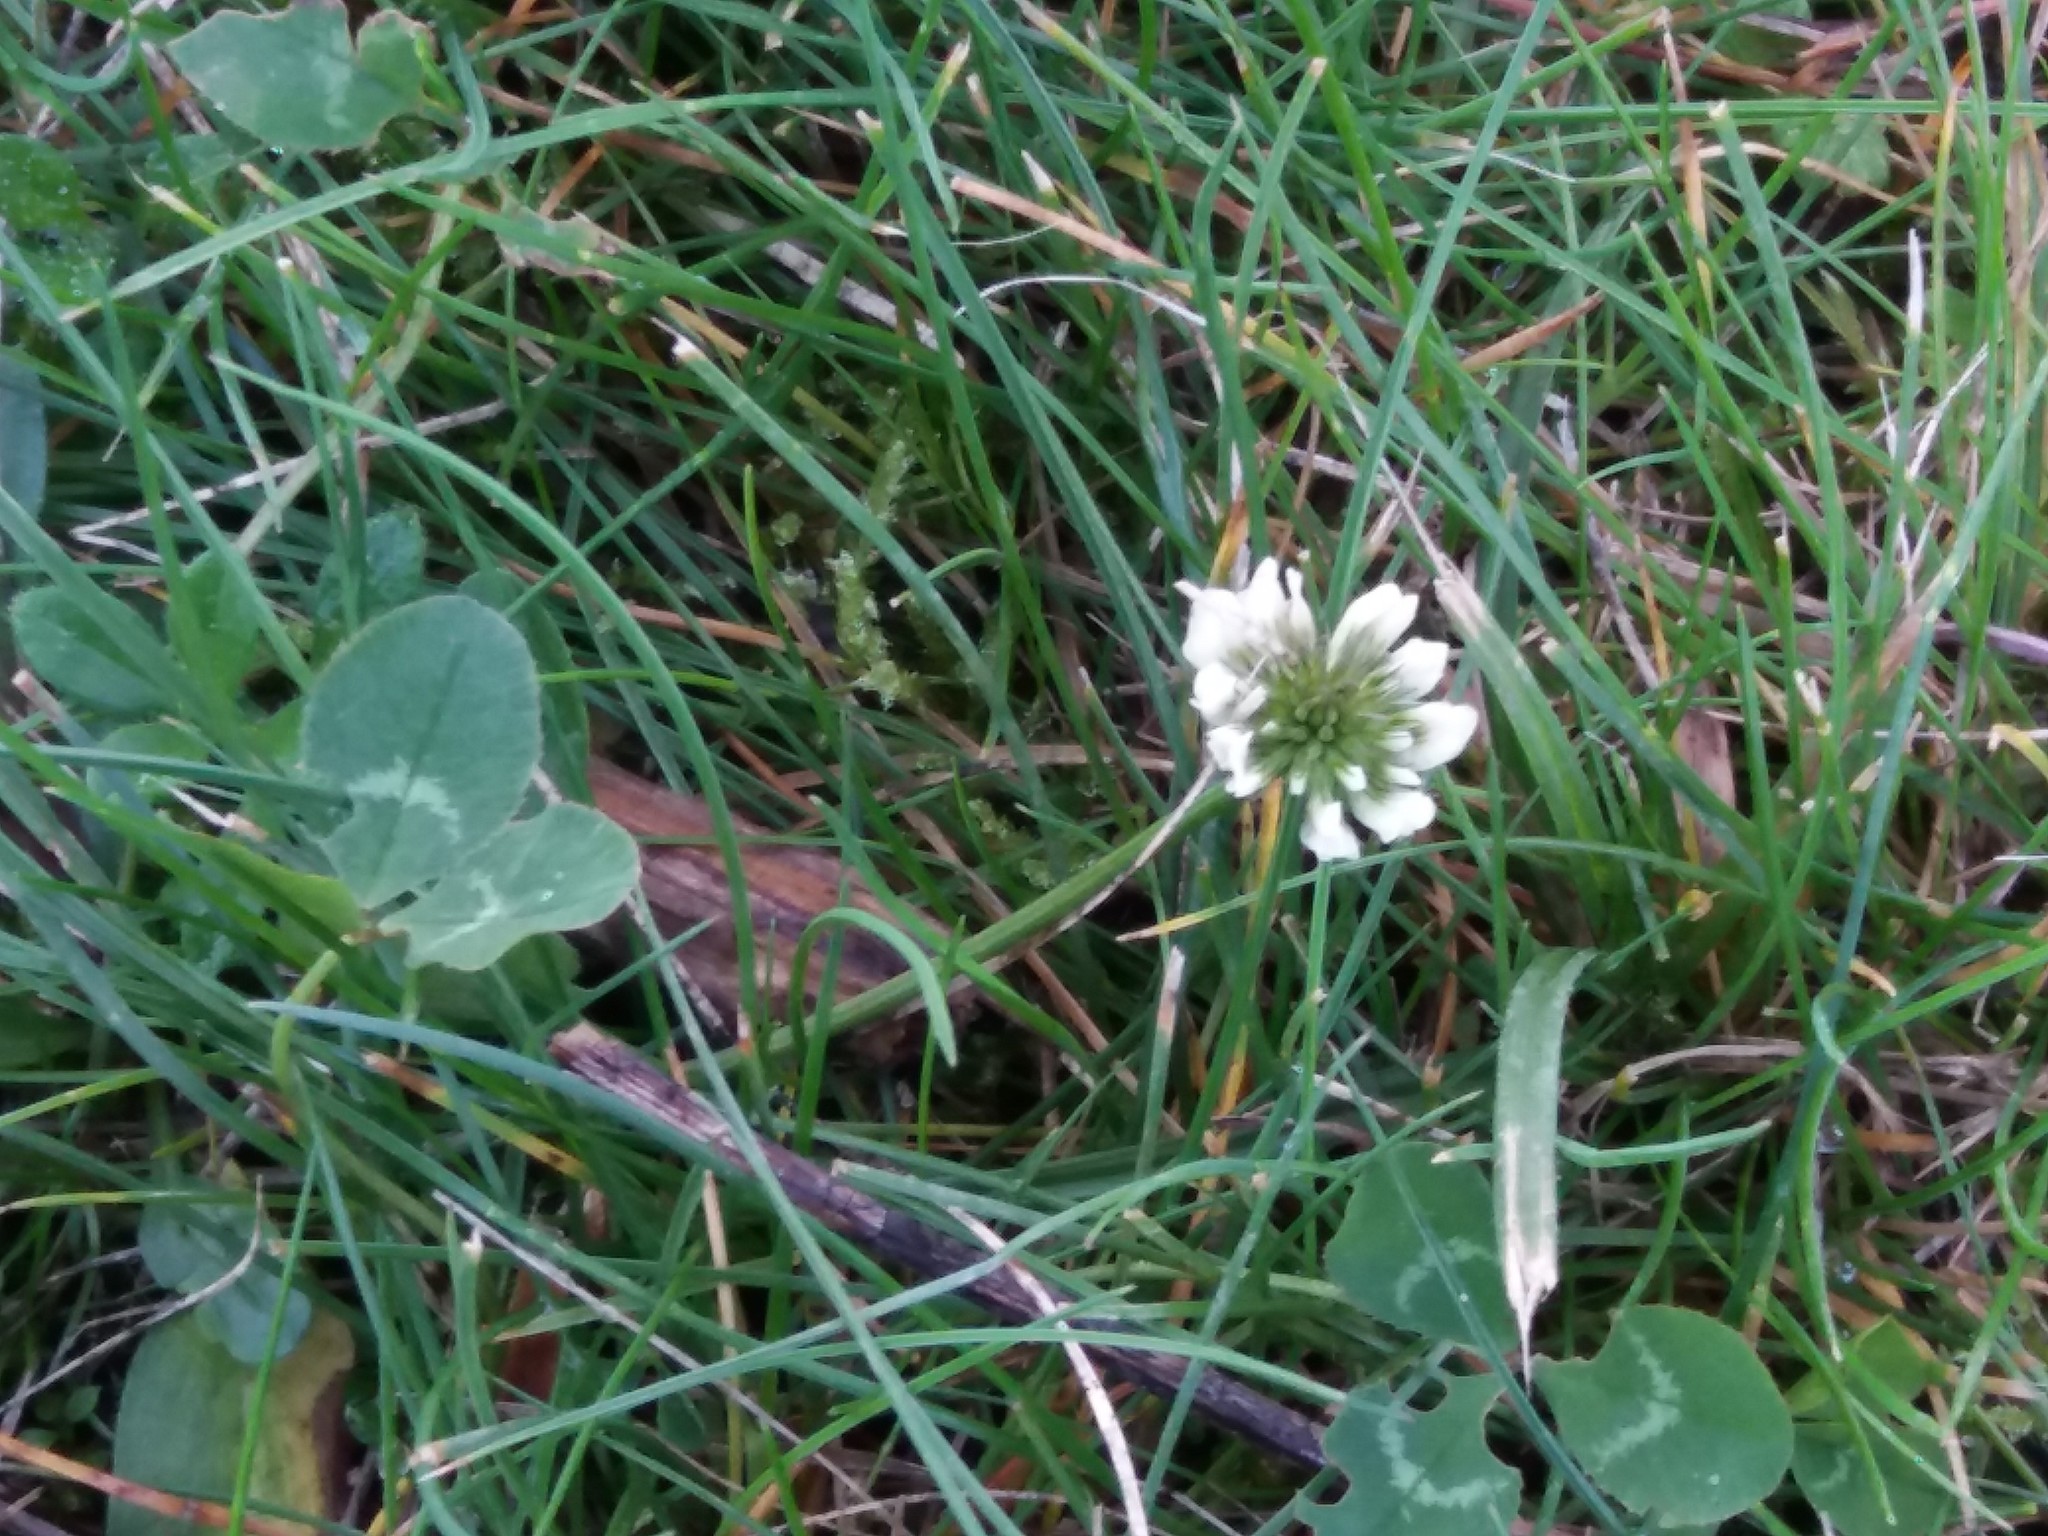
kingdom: Plantae
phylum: Tracheophyta
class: Magnoliopsida
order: Fabales
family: Fabaceae
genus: Trifolium
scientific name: Trifolium repens
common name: White clover
